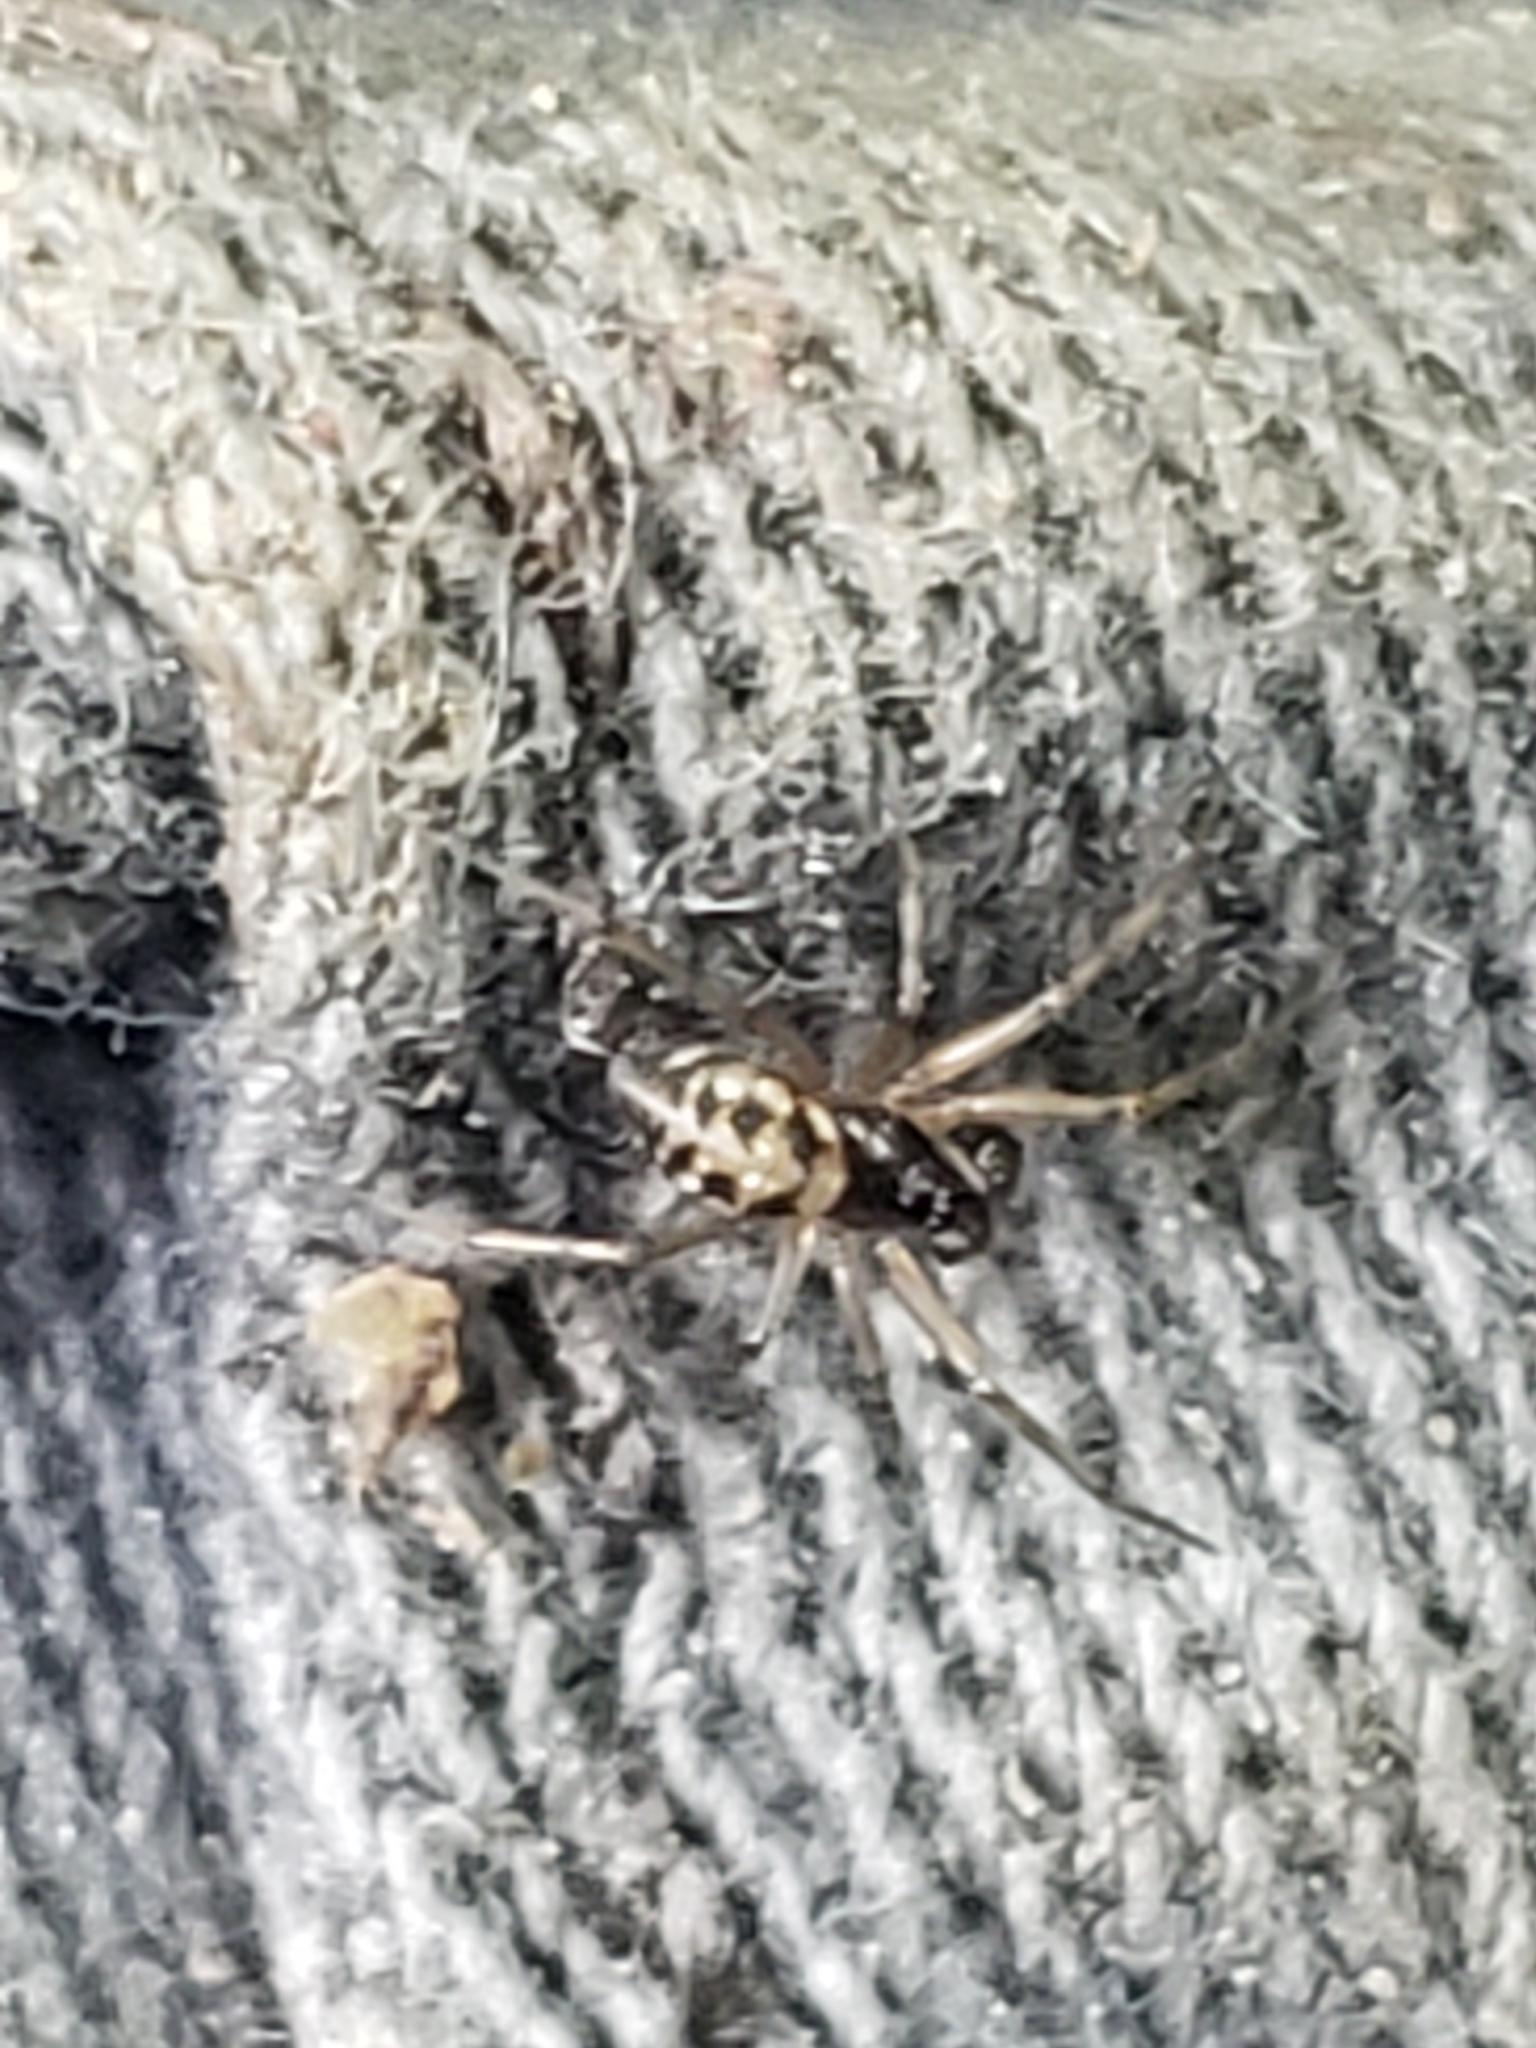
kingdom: Animalia
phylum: Arthropoda
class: Arachnida
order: Araneae
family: Theridiidae
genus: Steatoda
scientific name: Steatoda triangulosa
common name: Triangulate bud spider
